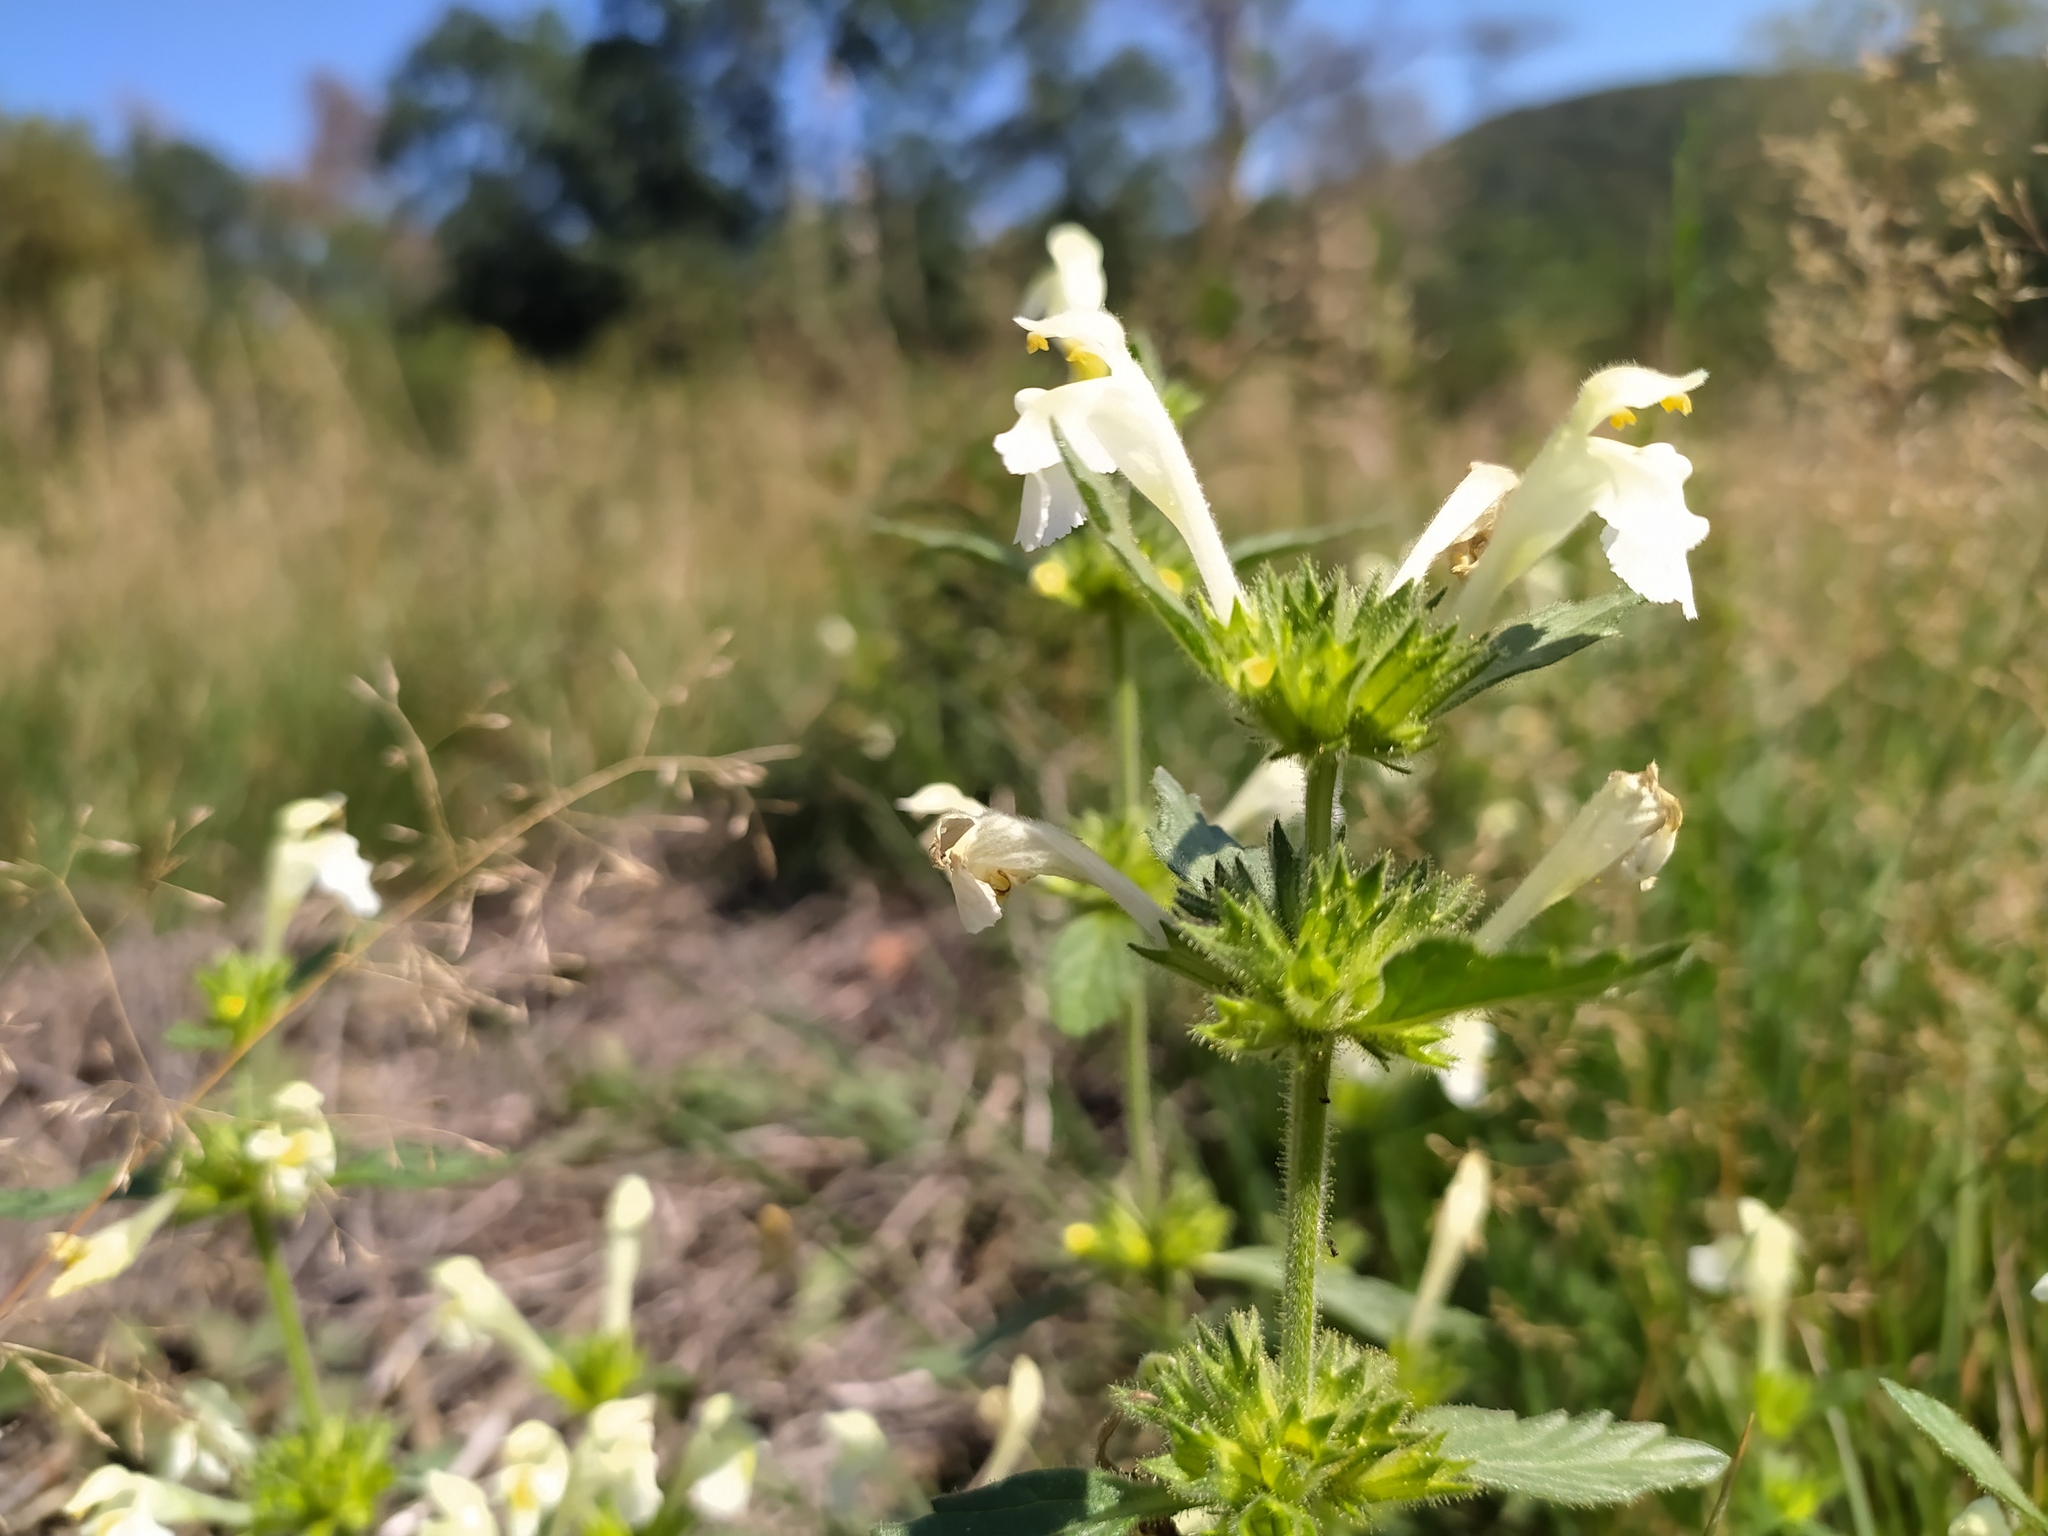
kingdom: Plantae
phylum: Tracheophyta
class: Magnoliopsida
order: Lamiales
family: Lamiaceae
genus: Galeopsis
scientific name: Galeopsis segetum
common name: Downy hemp-nettle
